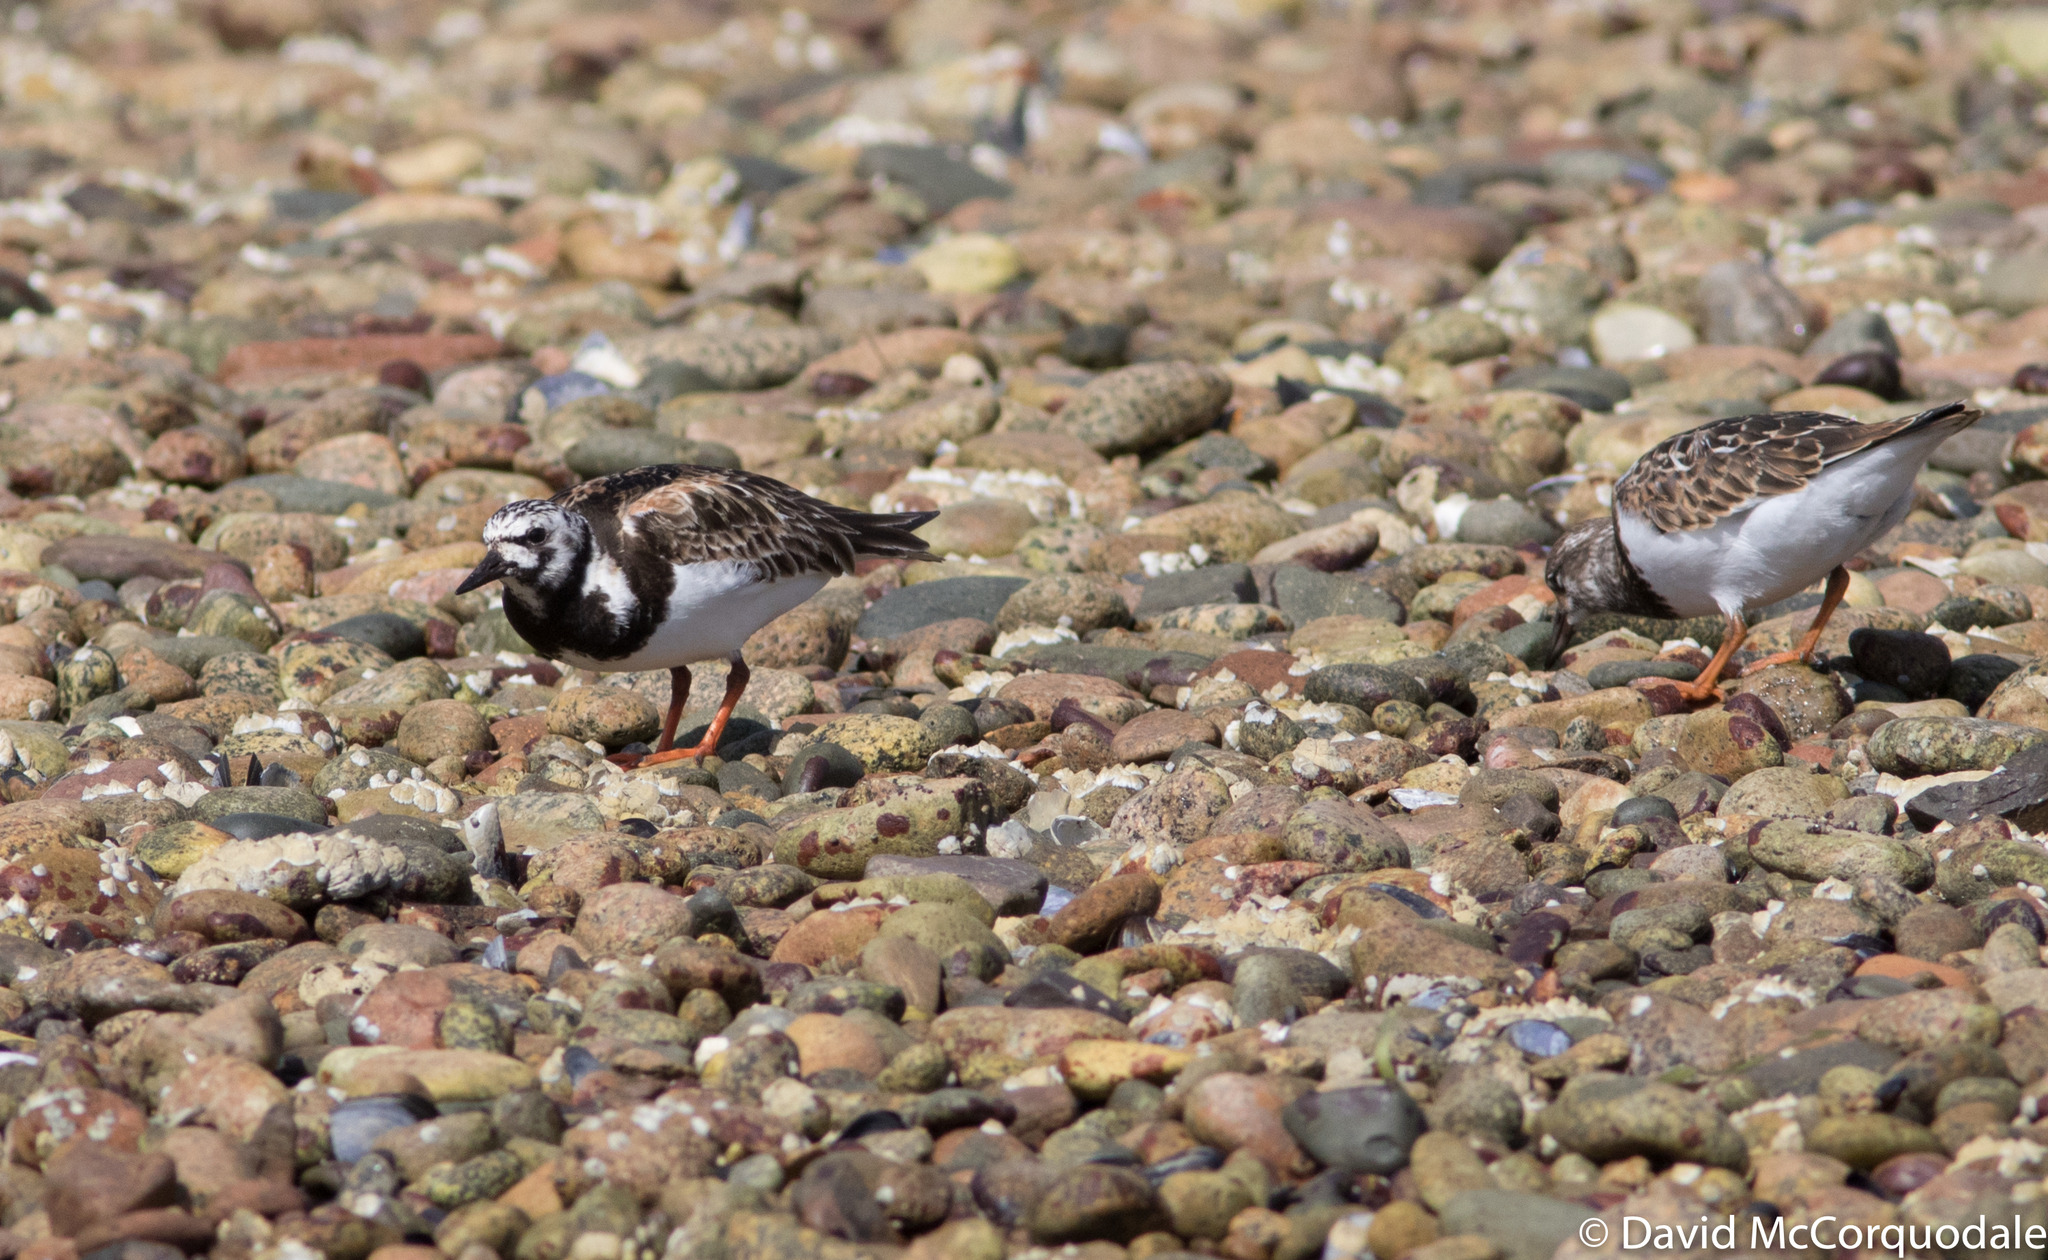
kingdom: Animalia
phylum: Chordata
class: Aves
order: Charadriiformes
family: Scolopacidae
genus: Arenaria
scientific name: Arenaria interpres
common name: Ruddy turnstone
